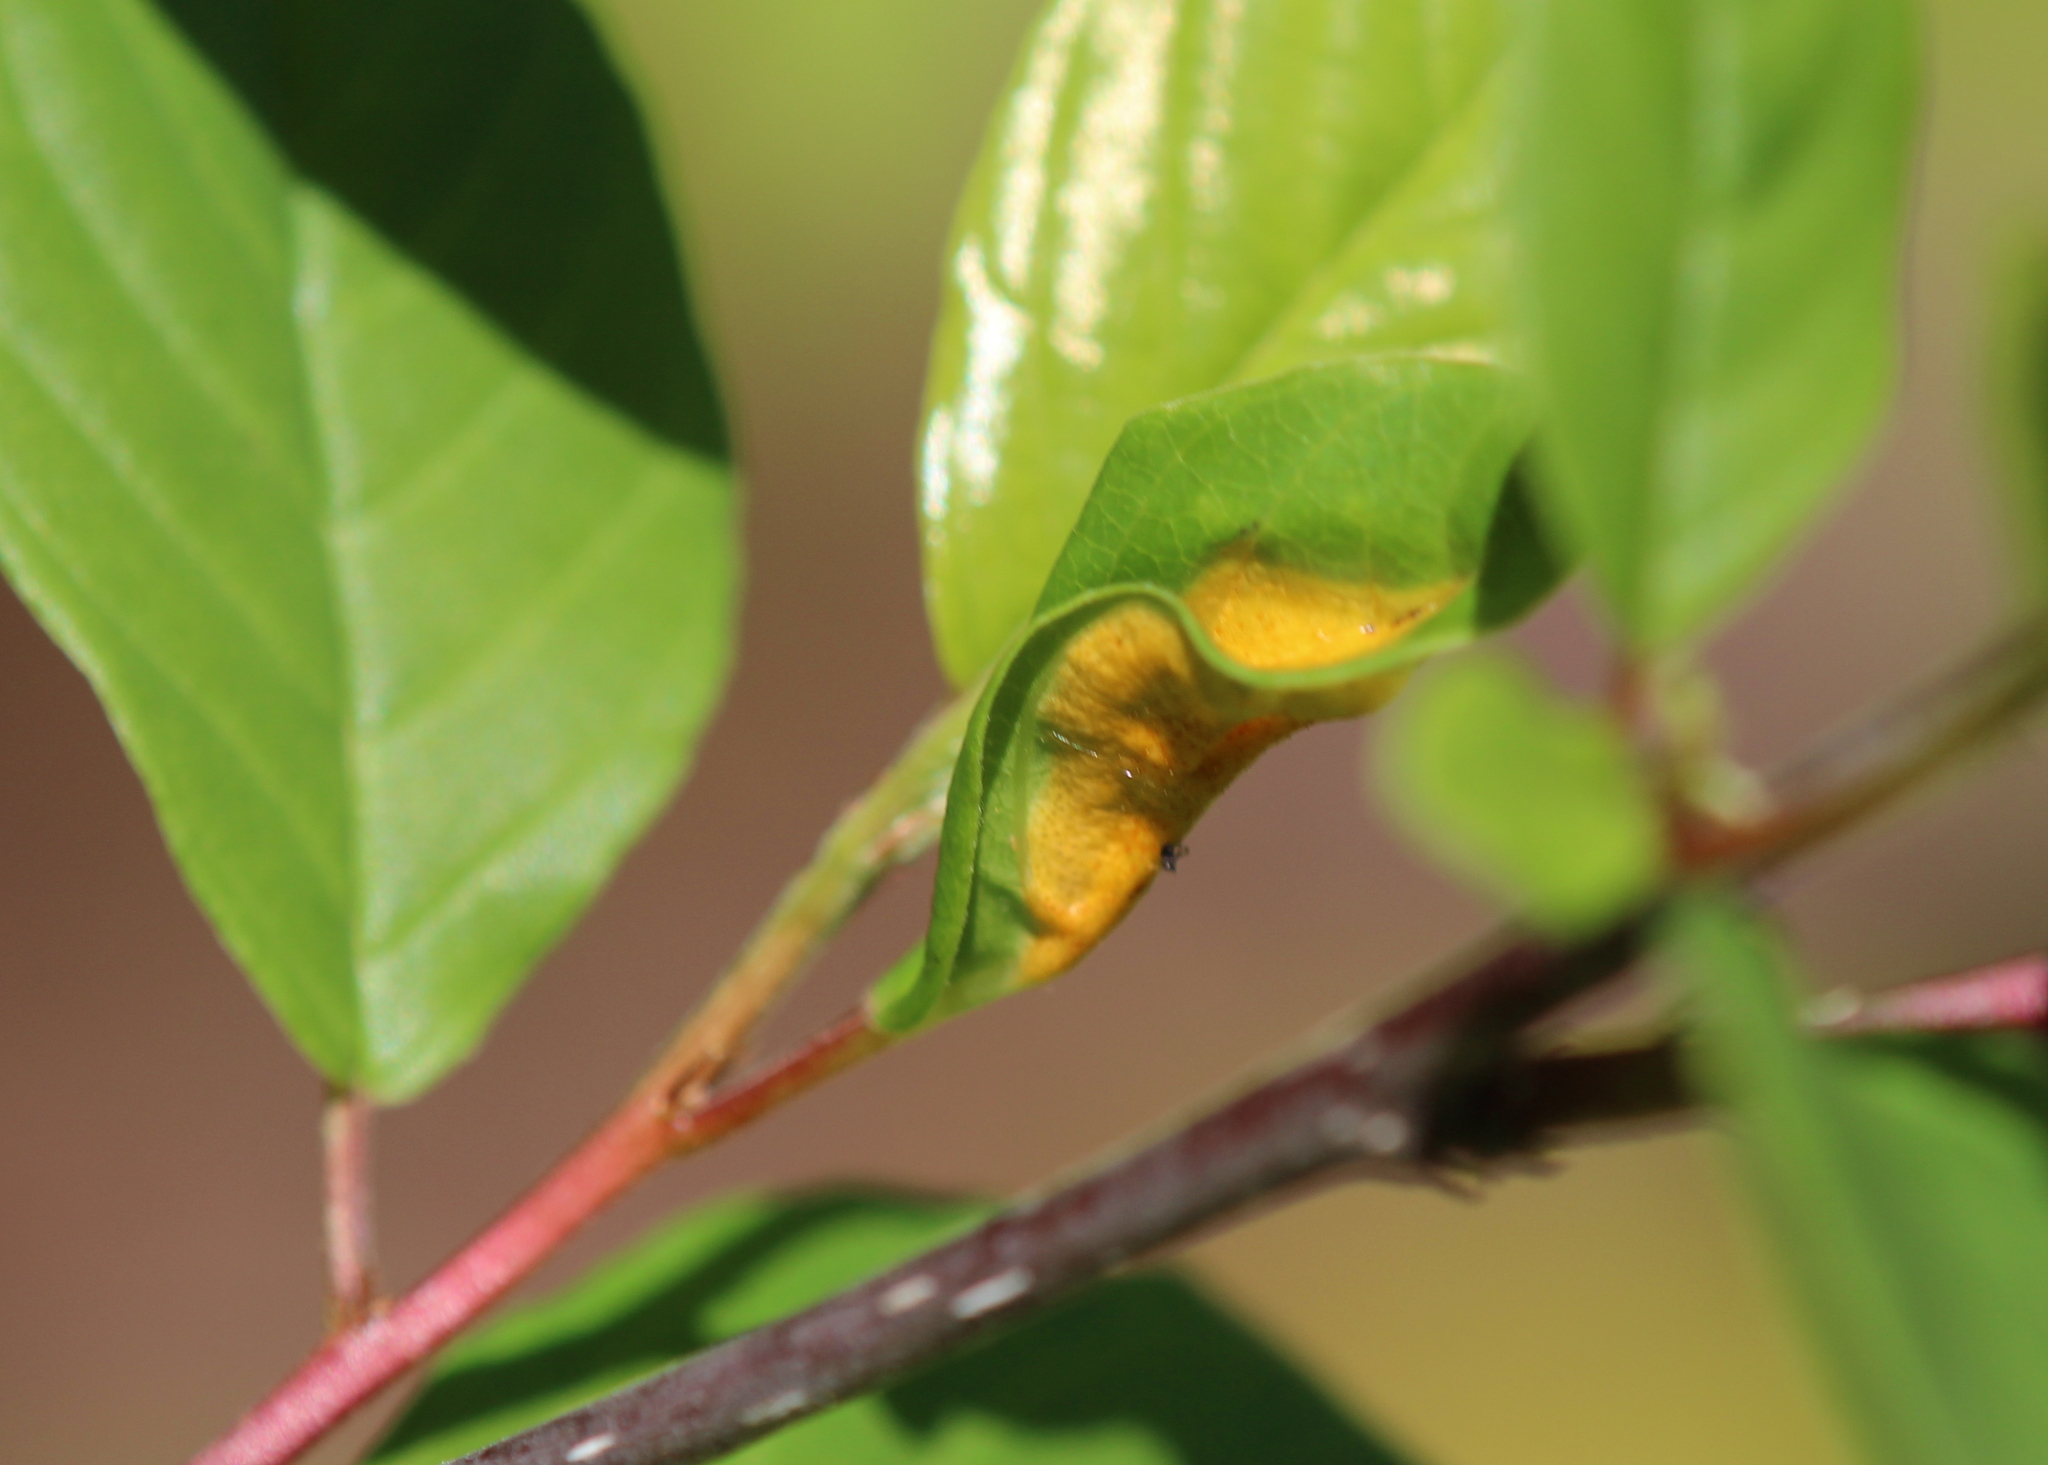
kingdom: Fungi
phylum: Basidiomycota
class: Pucciniomycetes
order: Pucciniales
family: Pucciniaceae
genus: Puccinia
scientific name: Puccinia coronata
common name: Crown rust
